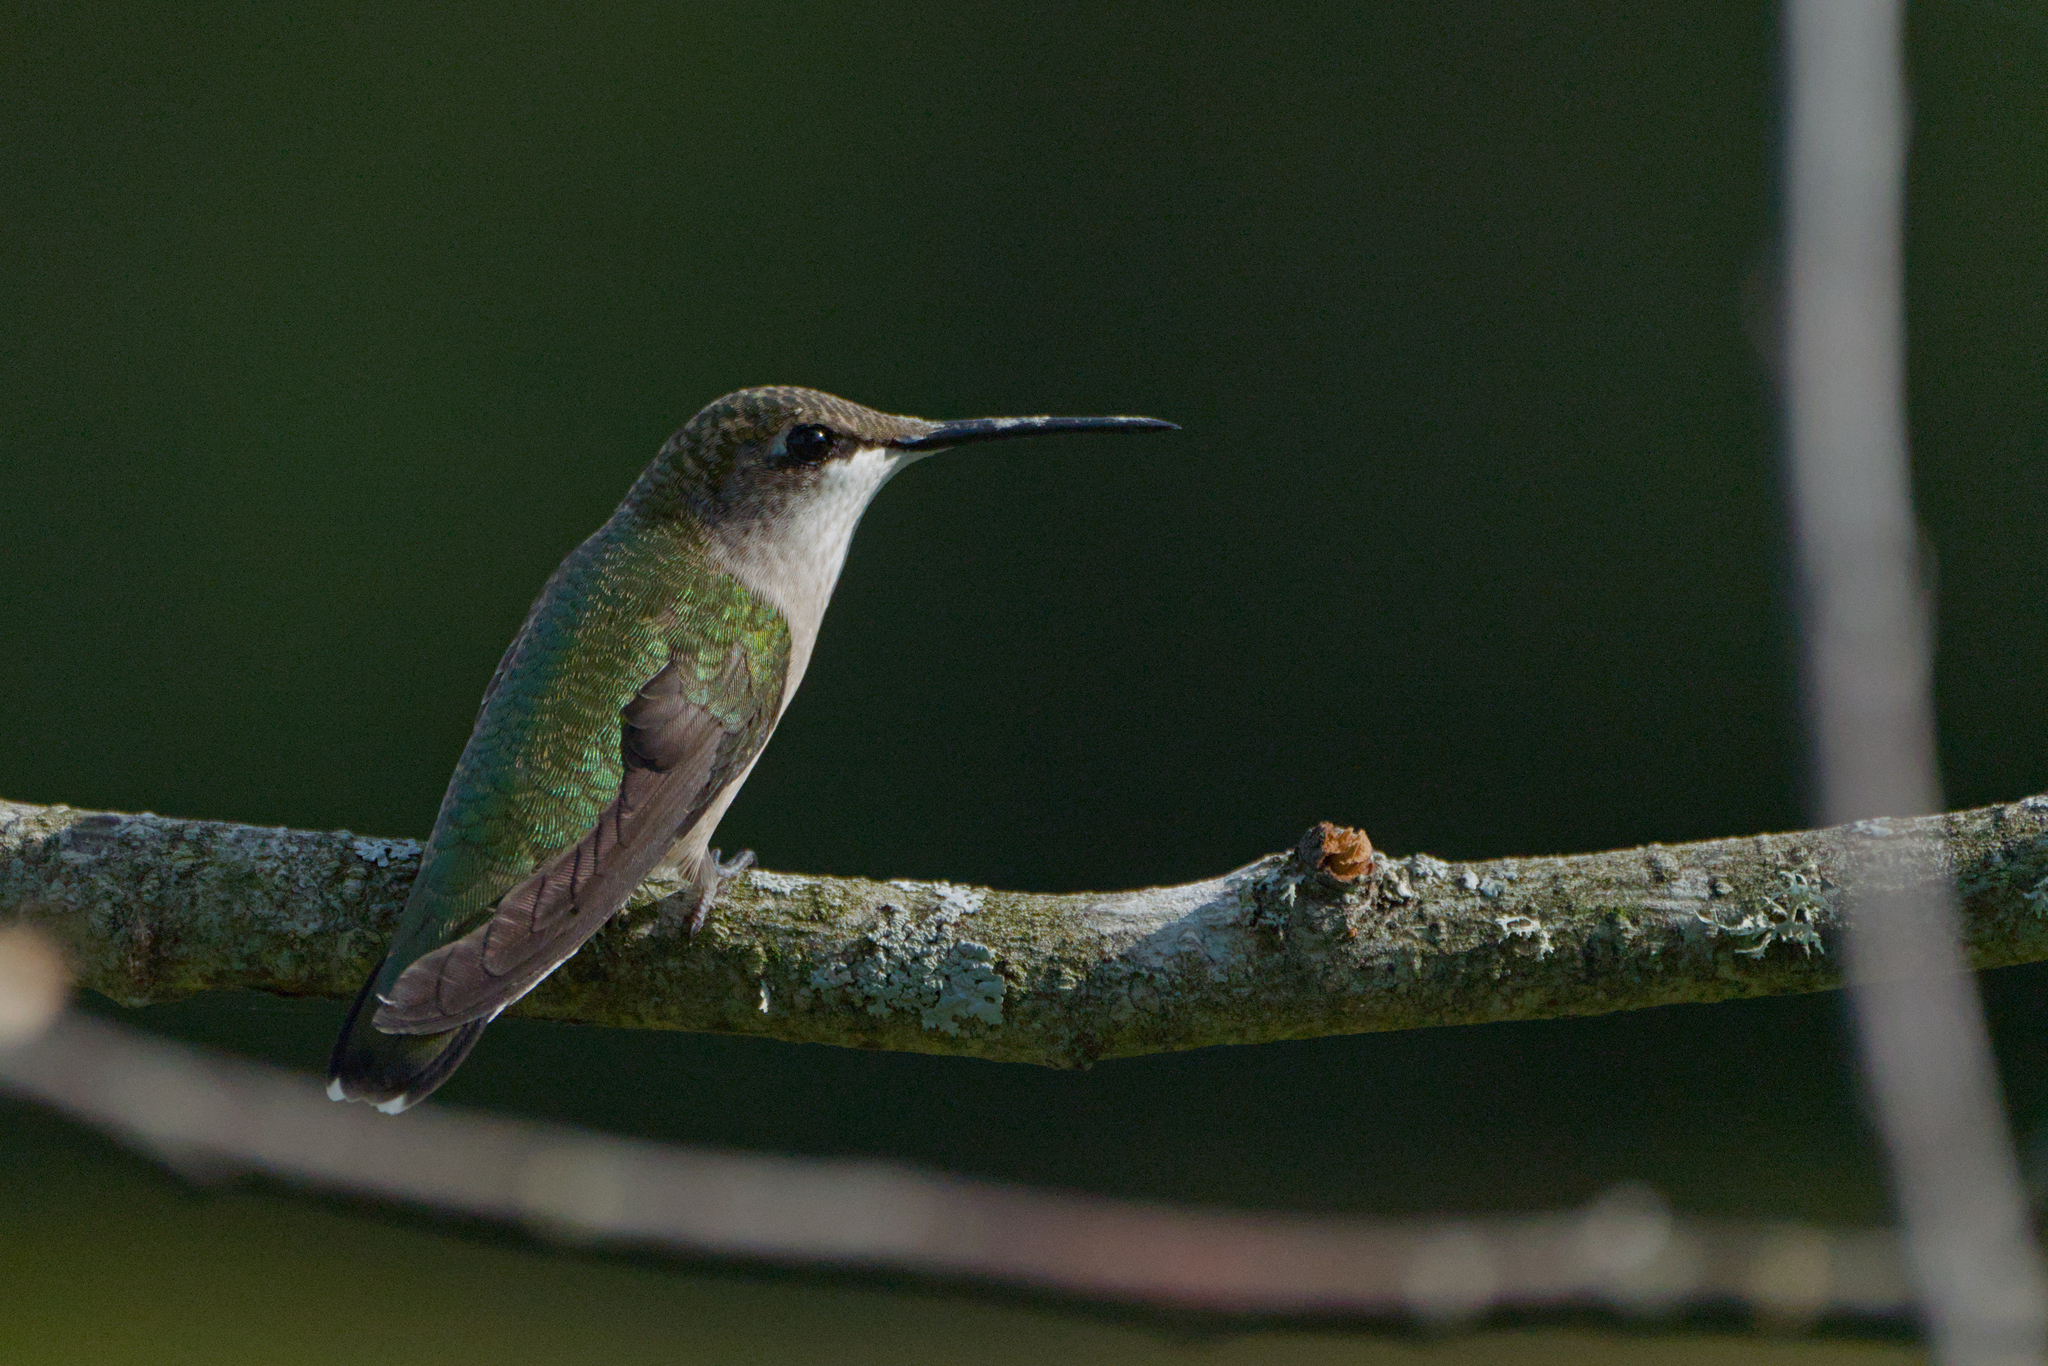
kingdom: Animalia
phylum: Chordata
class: Aves
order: Apodiformes
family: Trochilidae
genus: Archilochus
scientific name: Archilochus colubris
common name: Ruby-throated hummingbird
